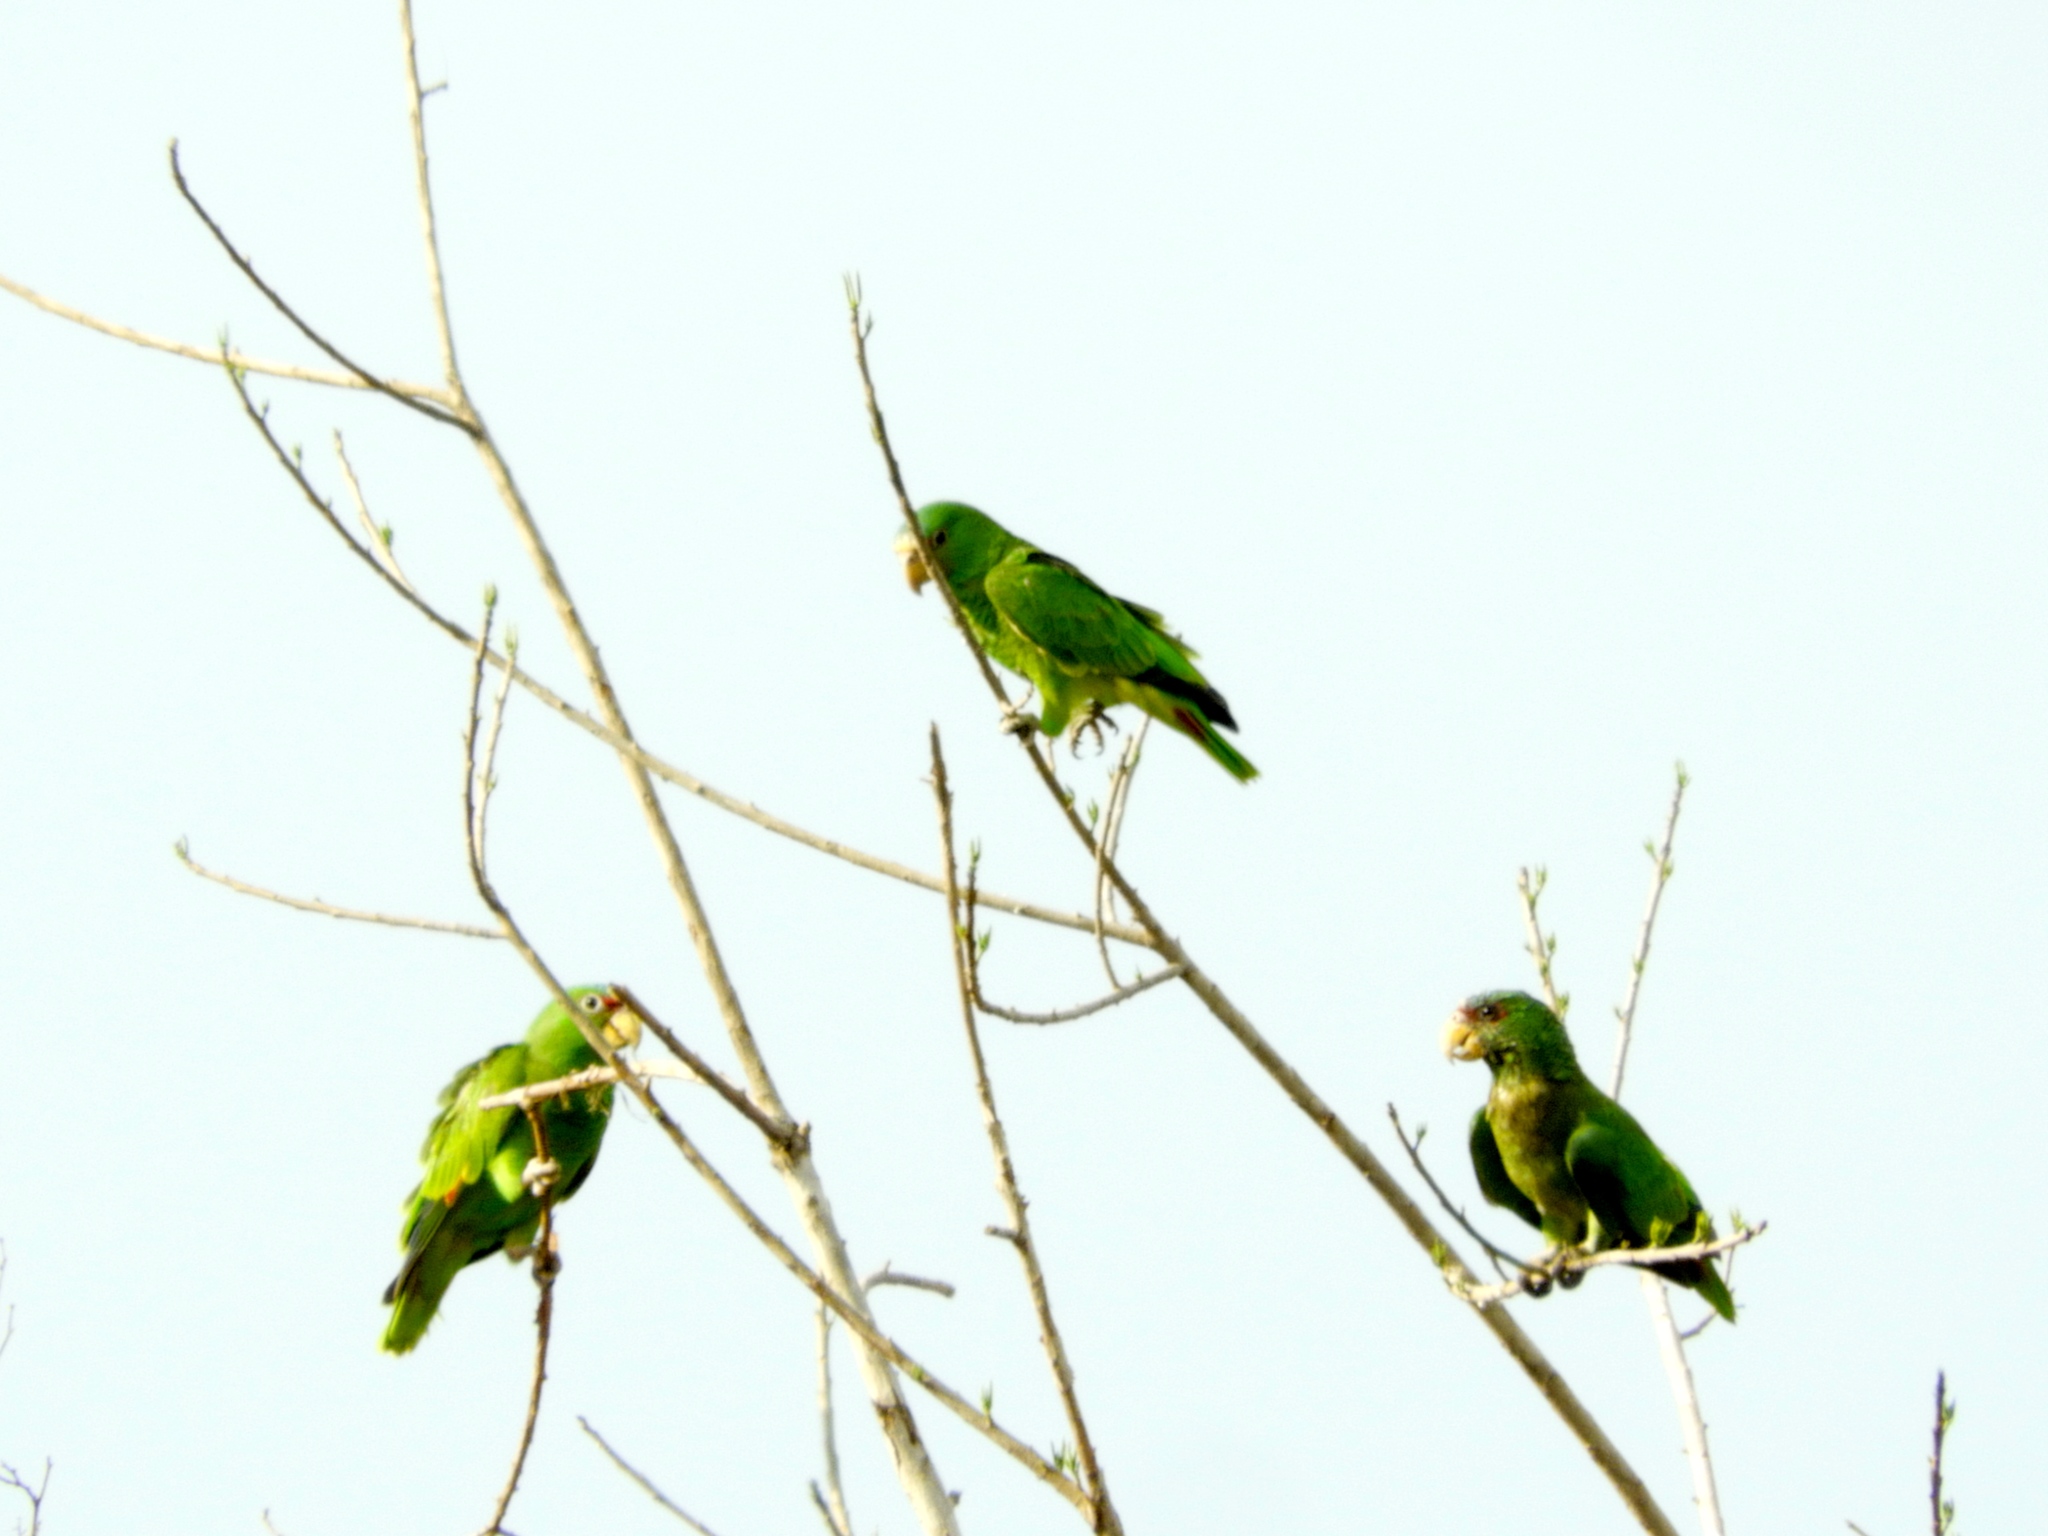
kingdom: Animalia
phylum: Chordata
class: Aves
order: Psittaciformes
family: Psittacidae
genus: Amazona
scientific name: Amazona albifrons
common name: White-fronted amazon
